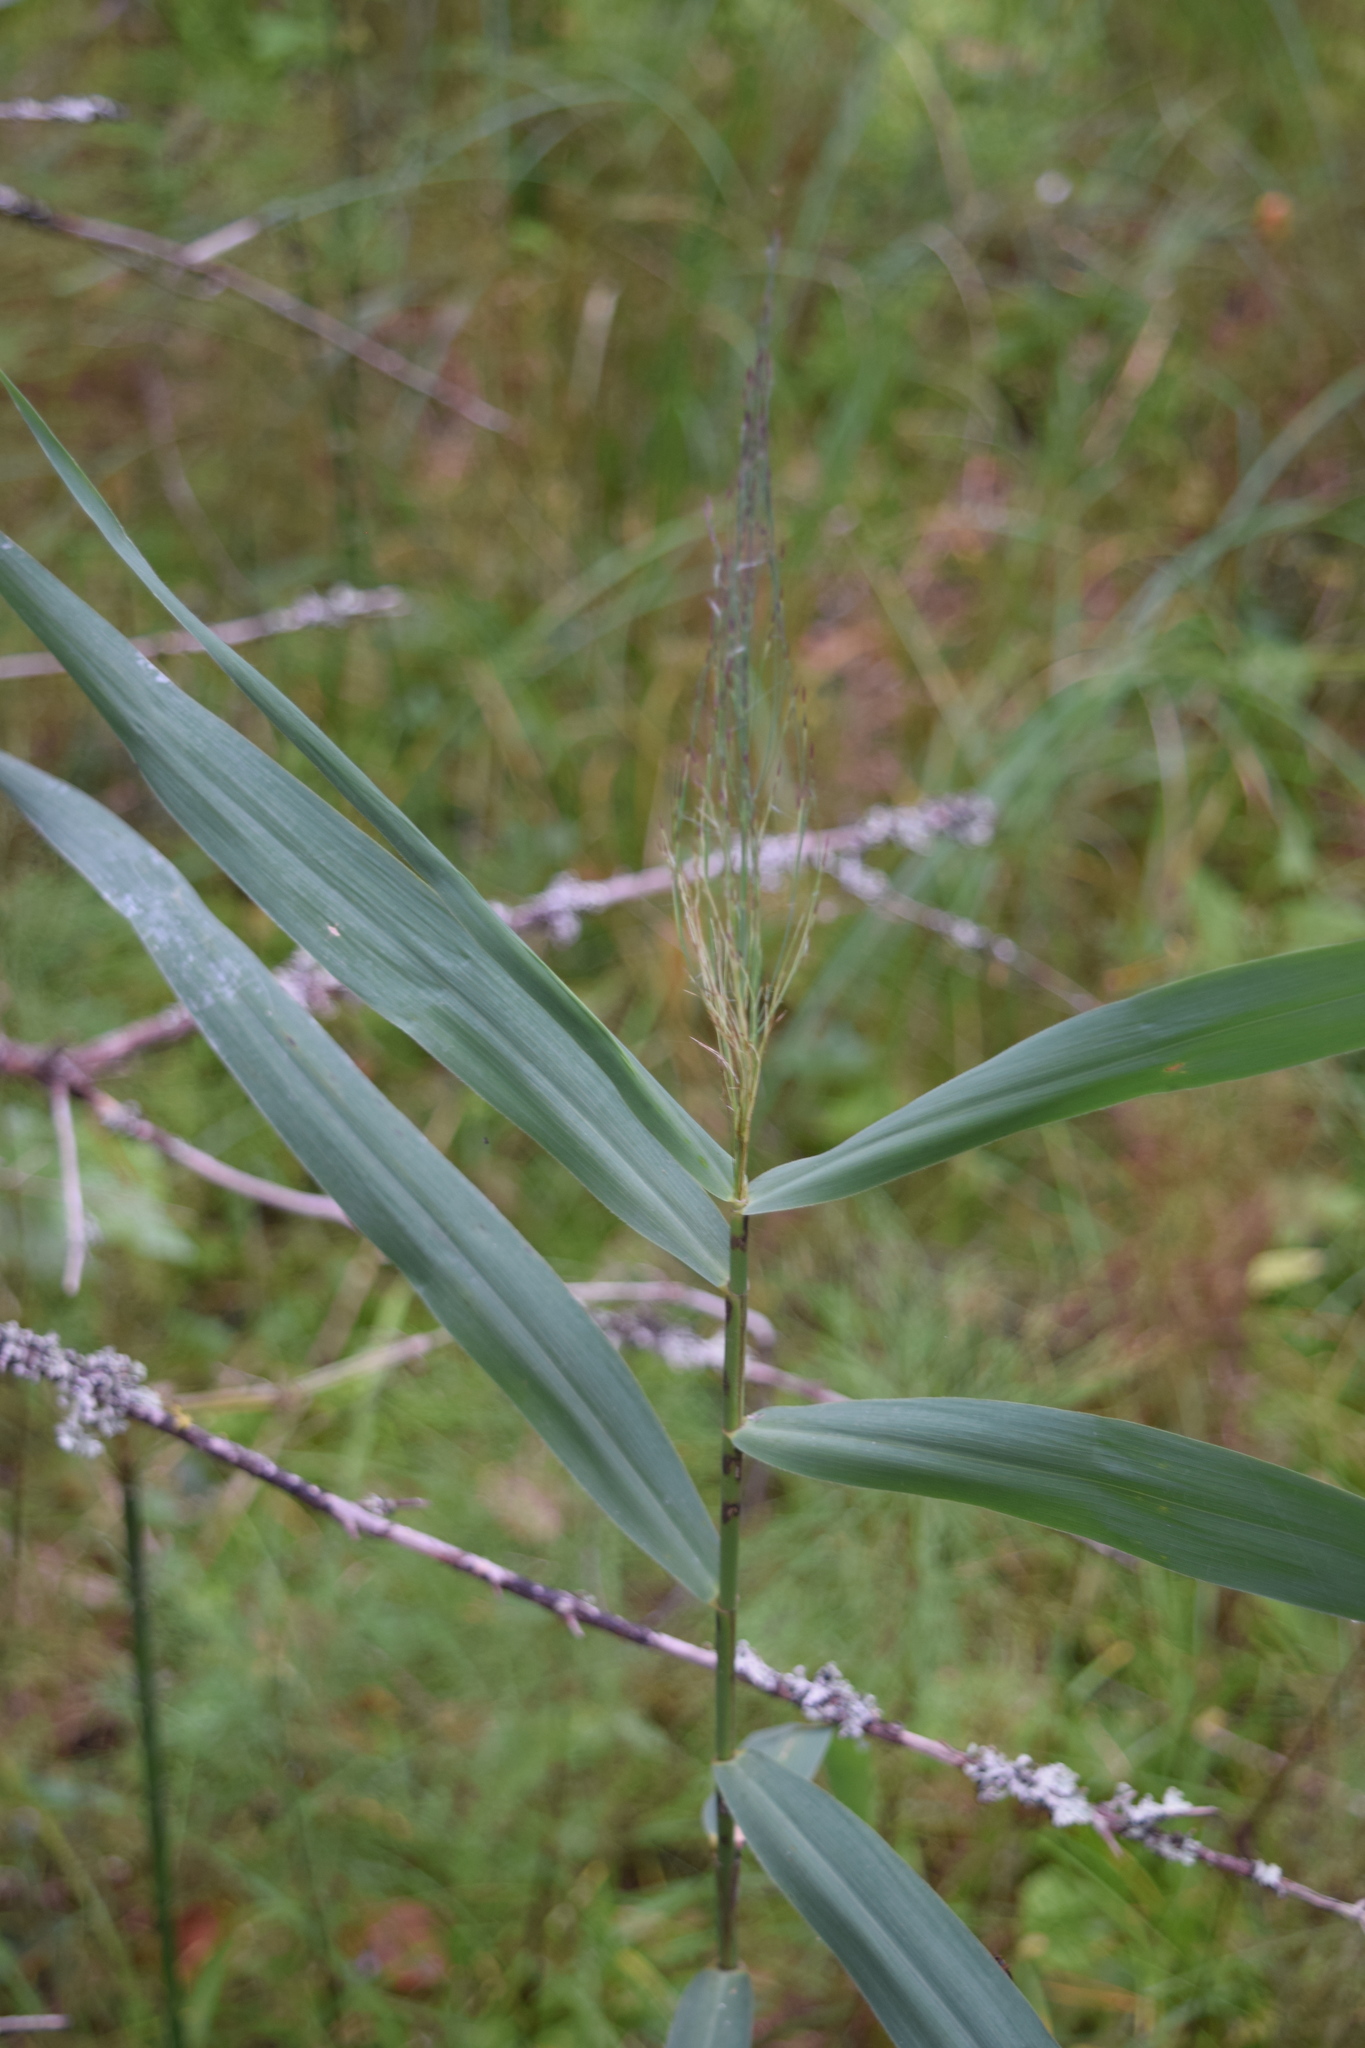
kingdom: Plantae
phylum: Tracheophyta
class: Liliopsida
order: Poales
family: Poaceae
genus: Phragmites
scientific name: Phragmites australis
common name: Common reed
